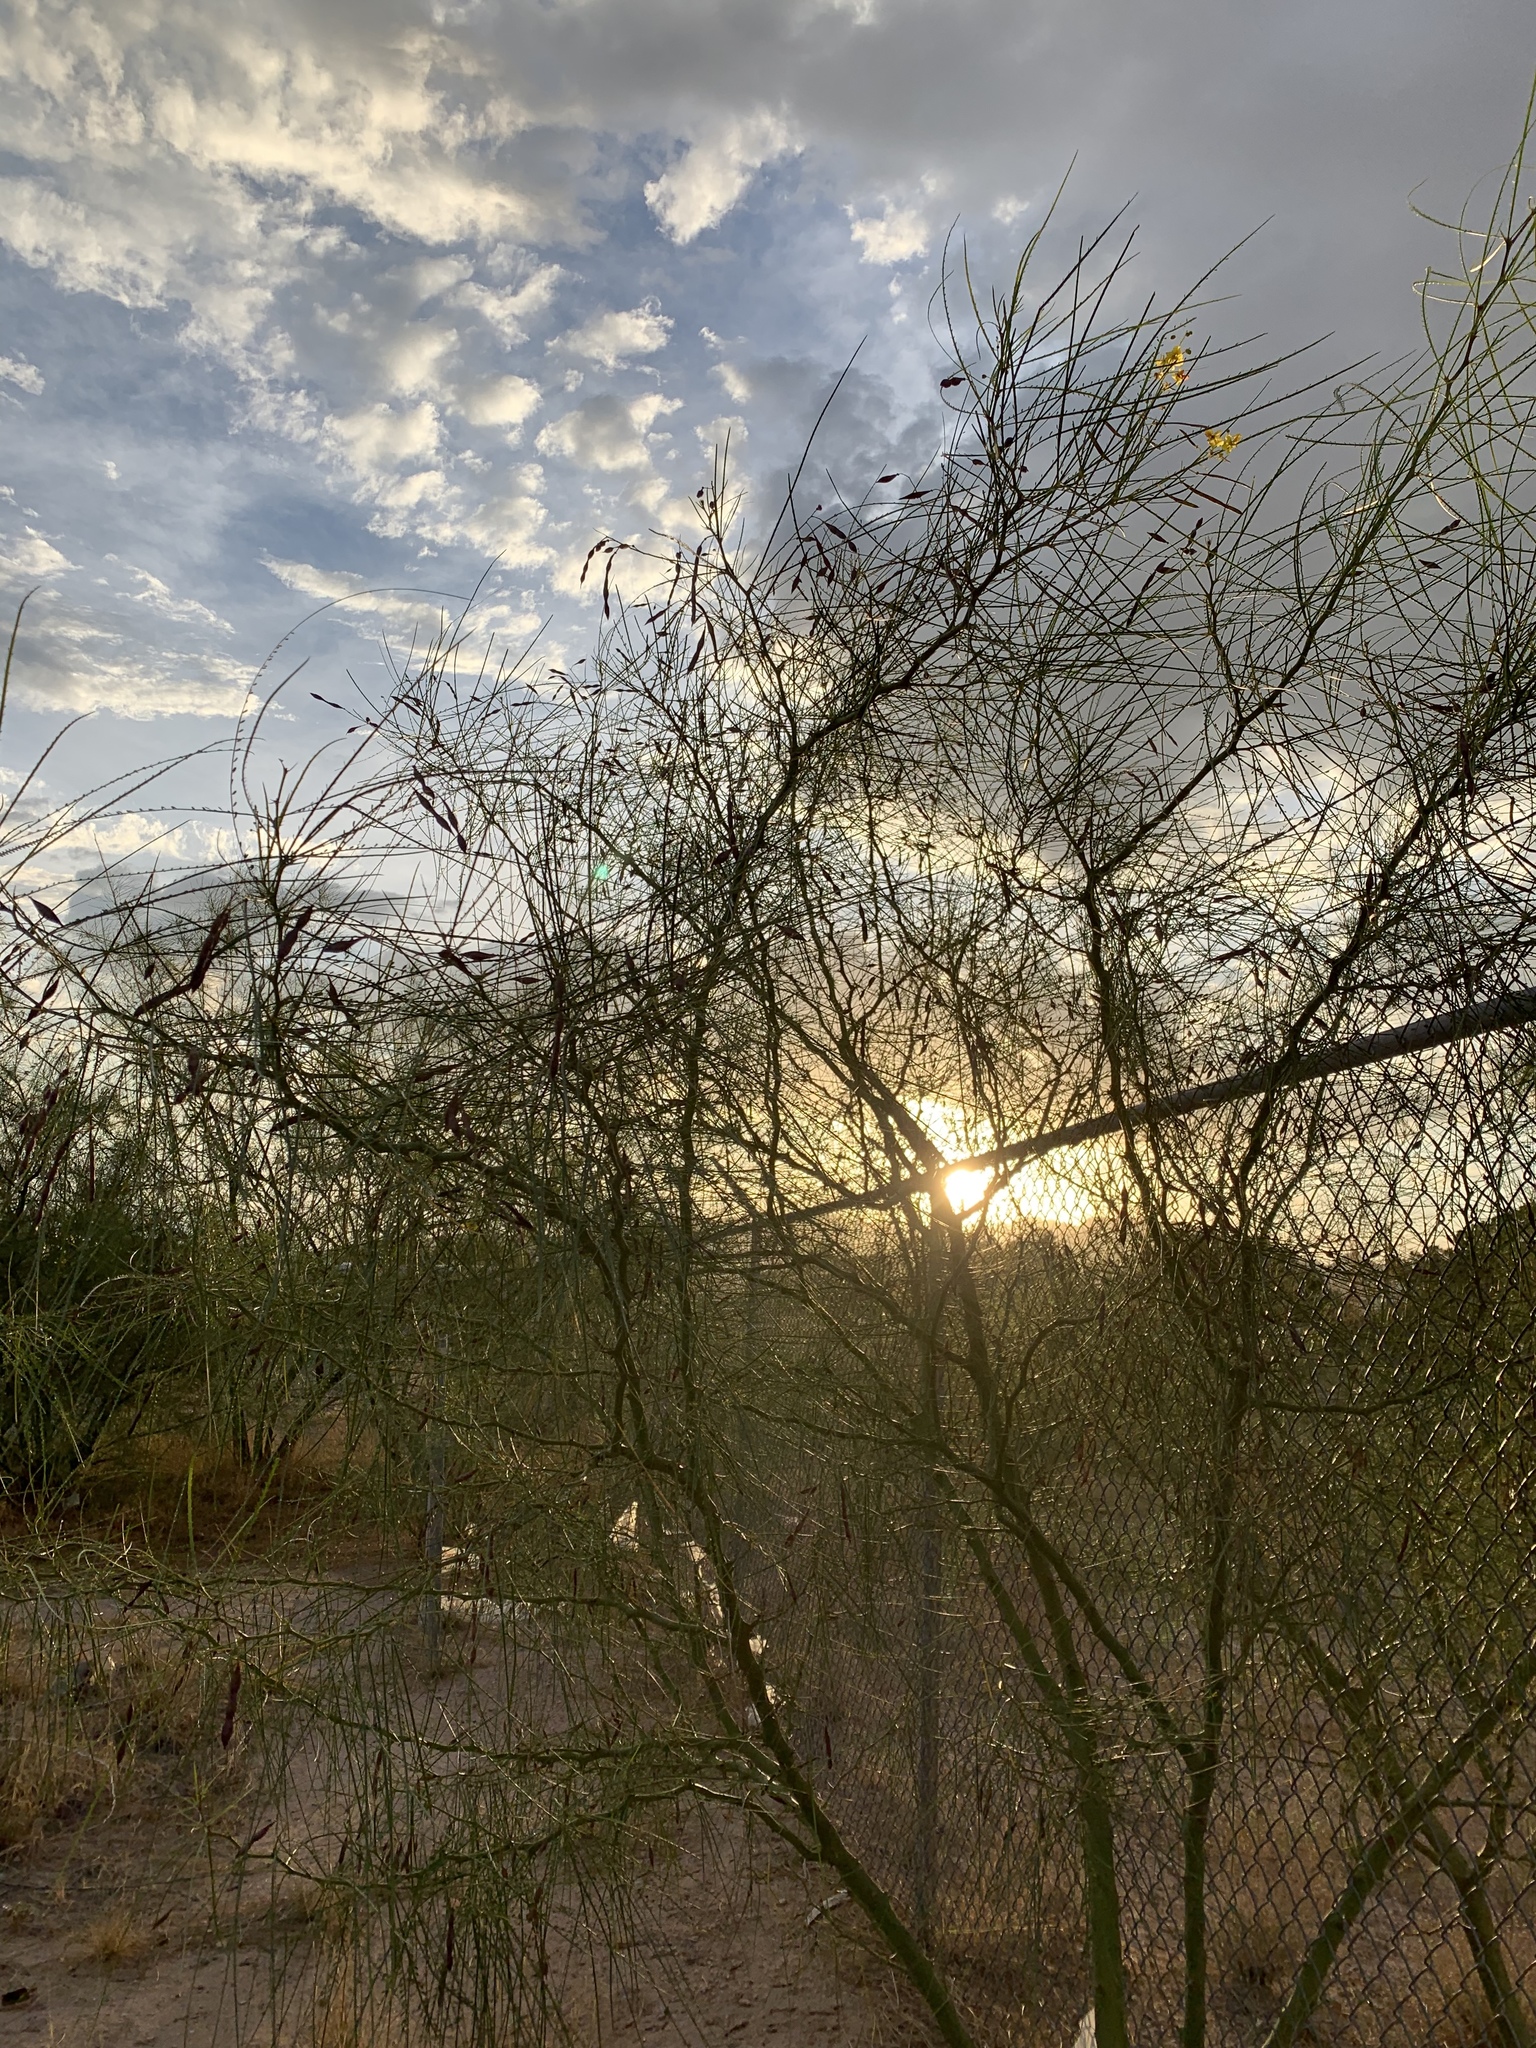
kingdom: Plantae
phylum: Tracheophyta
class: Magnoliopsida
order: Fabales
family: Fabaceae
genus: Parkinsonia
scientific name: Parkinsonia aculeata
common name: Jerusalem thorn
